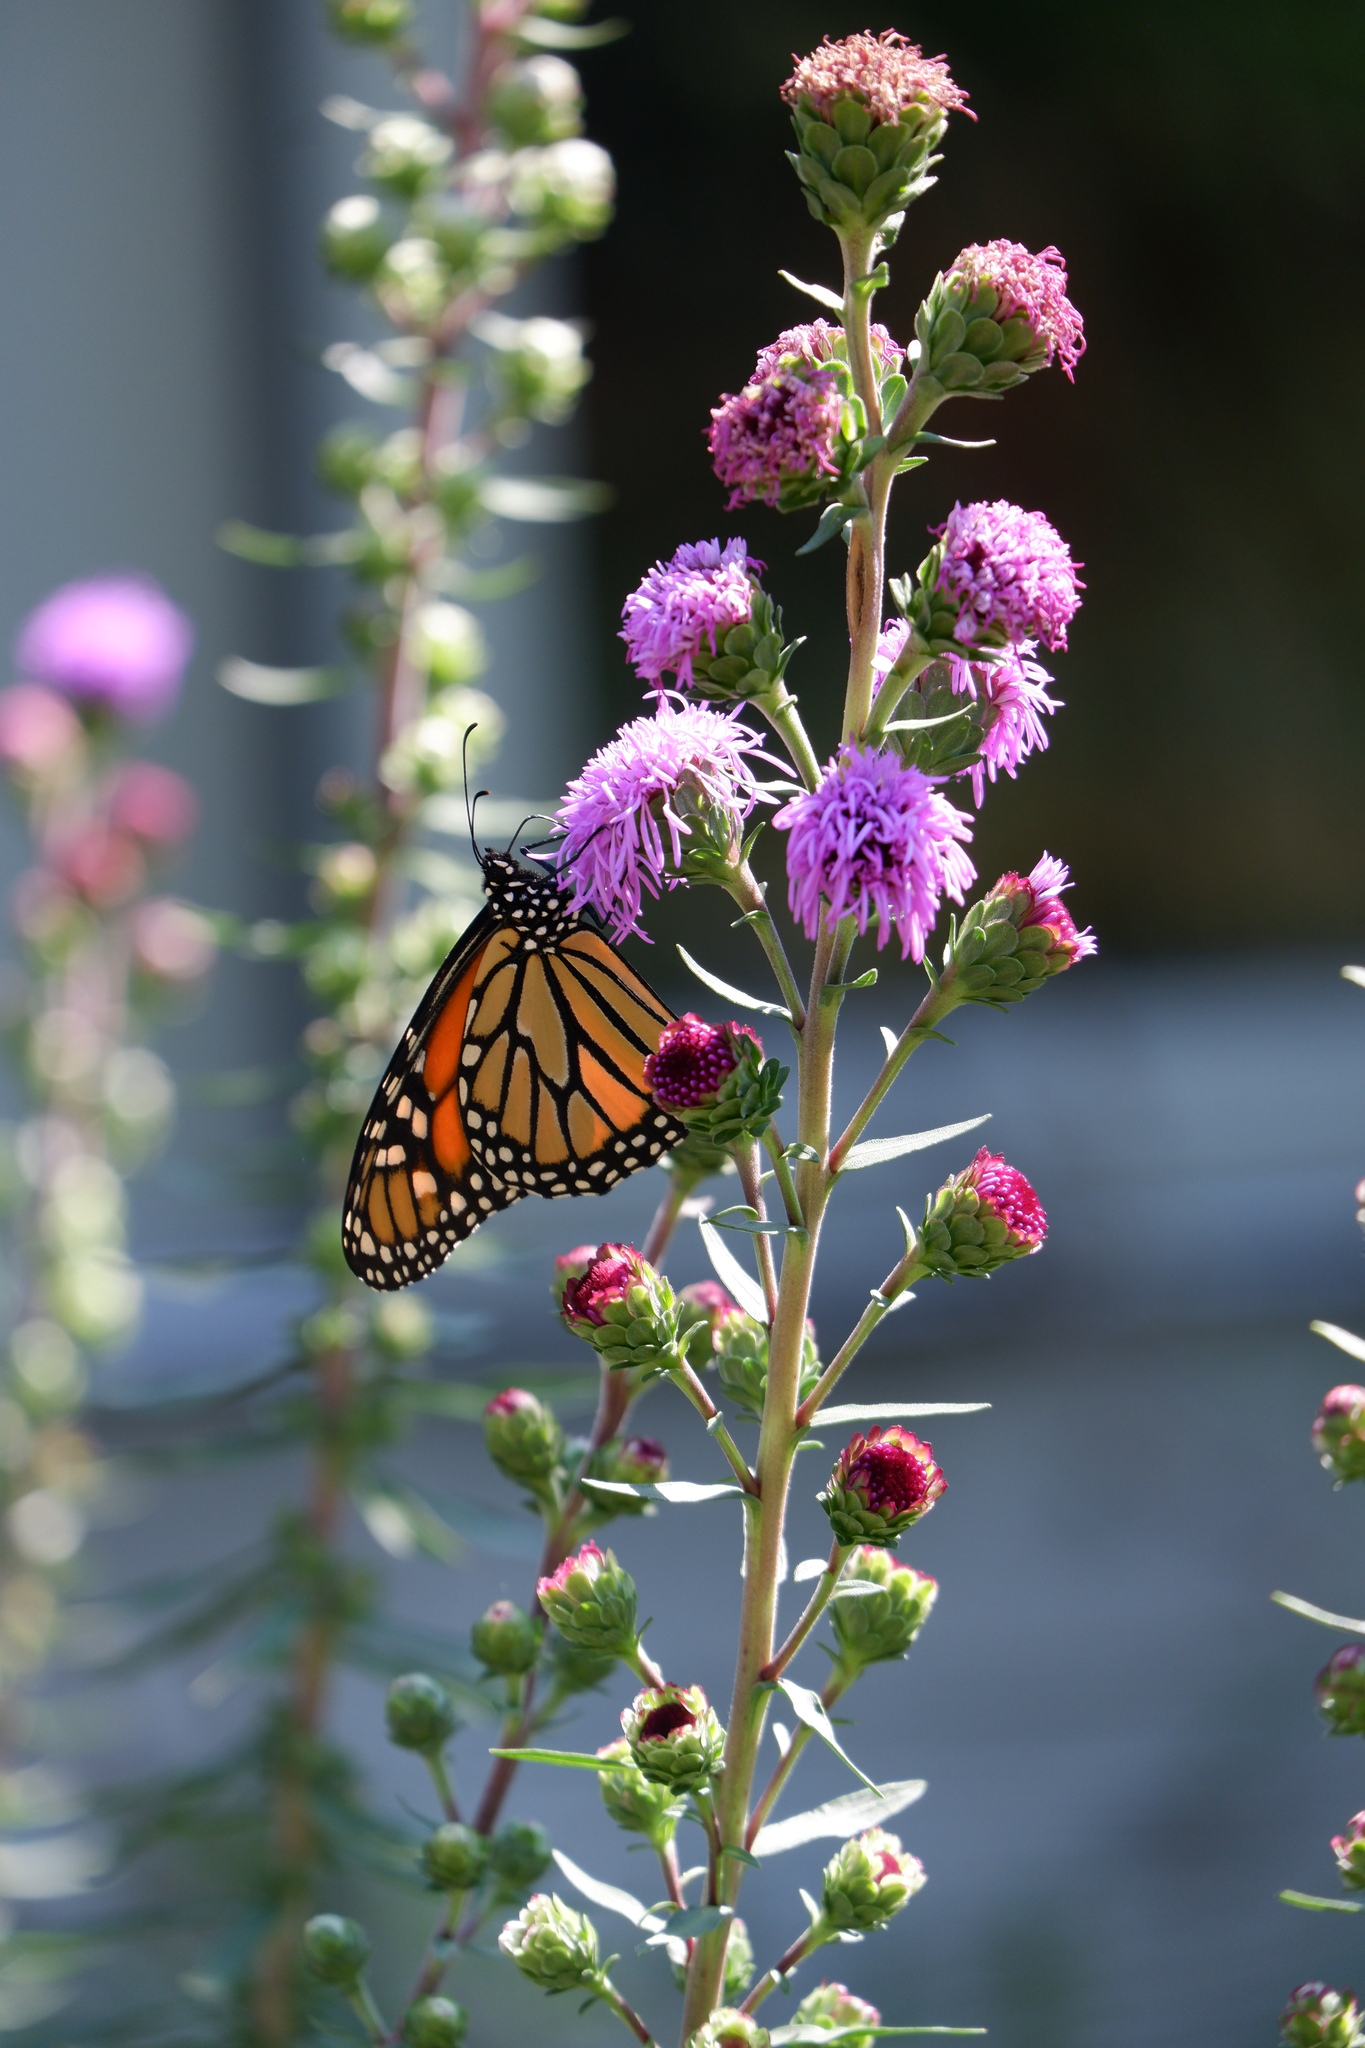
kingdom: Animalia
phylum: Arthropoda
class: Insecta
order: Lepidoptera
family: Nymphalidae
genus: Danaus
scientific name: Danaus plexippus
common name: Monarch
